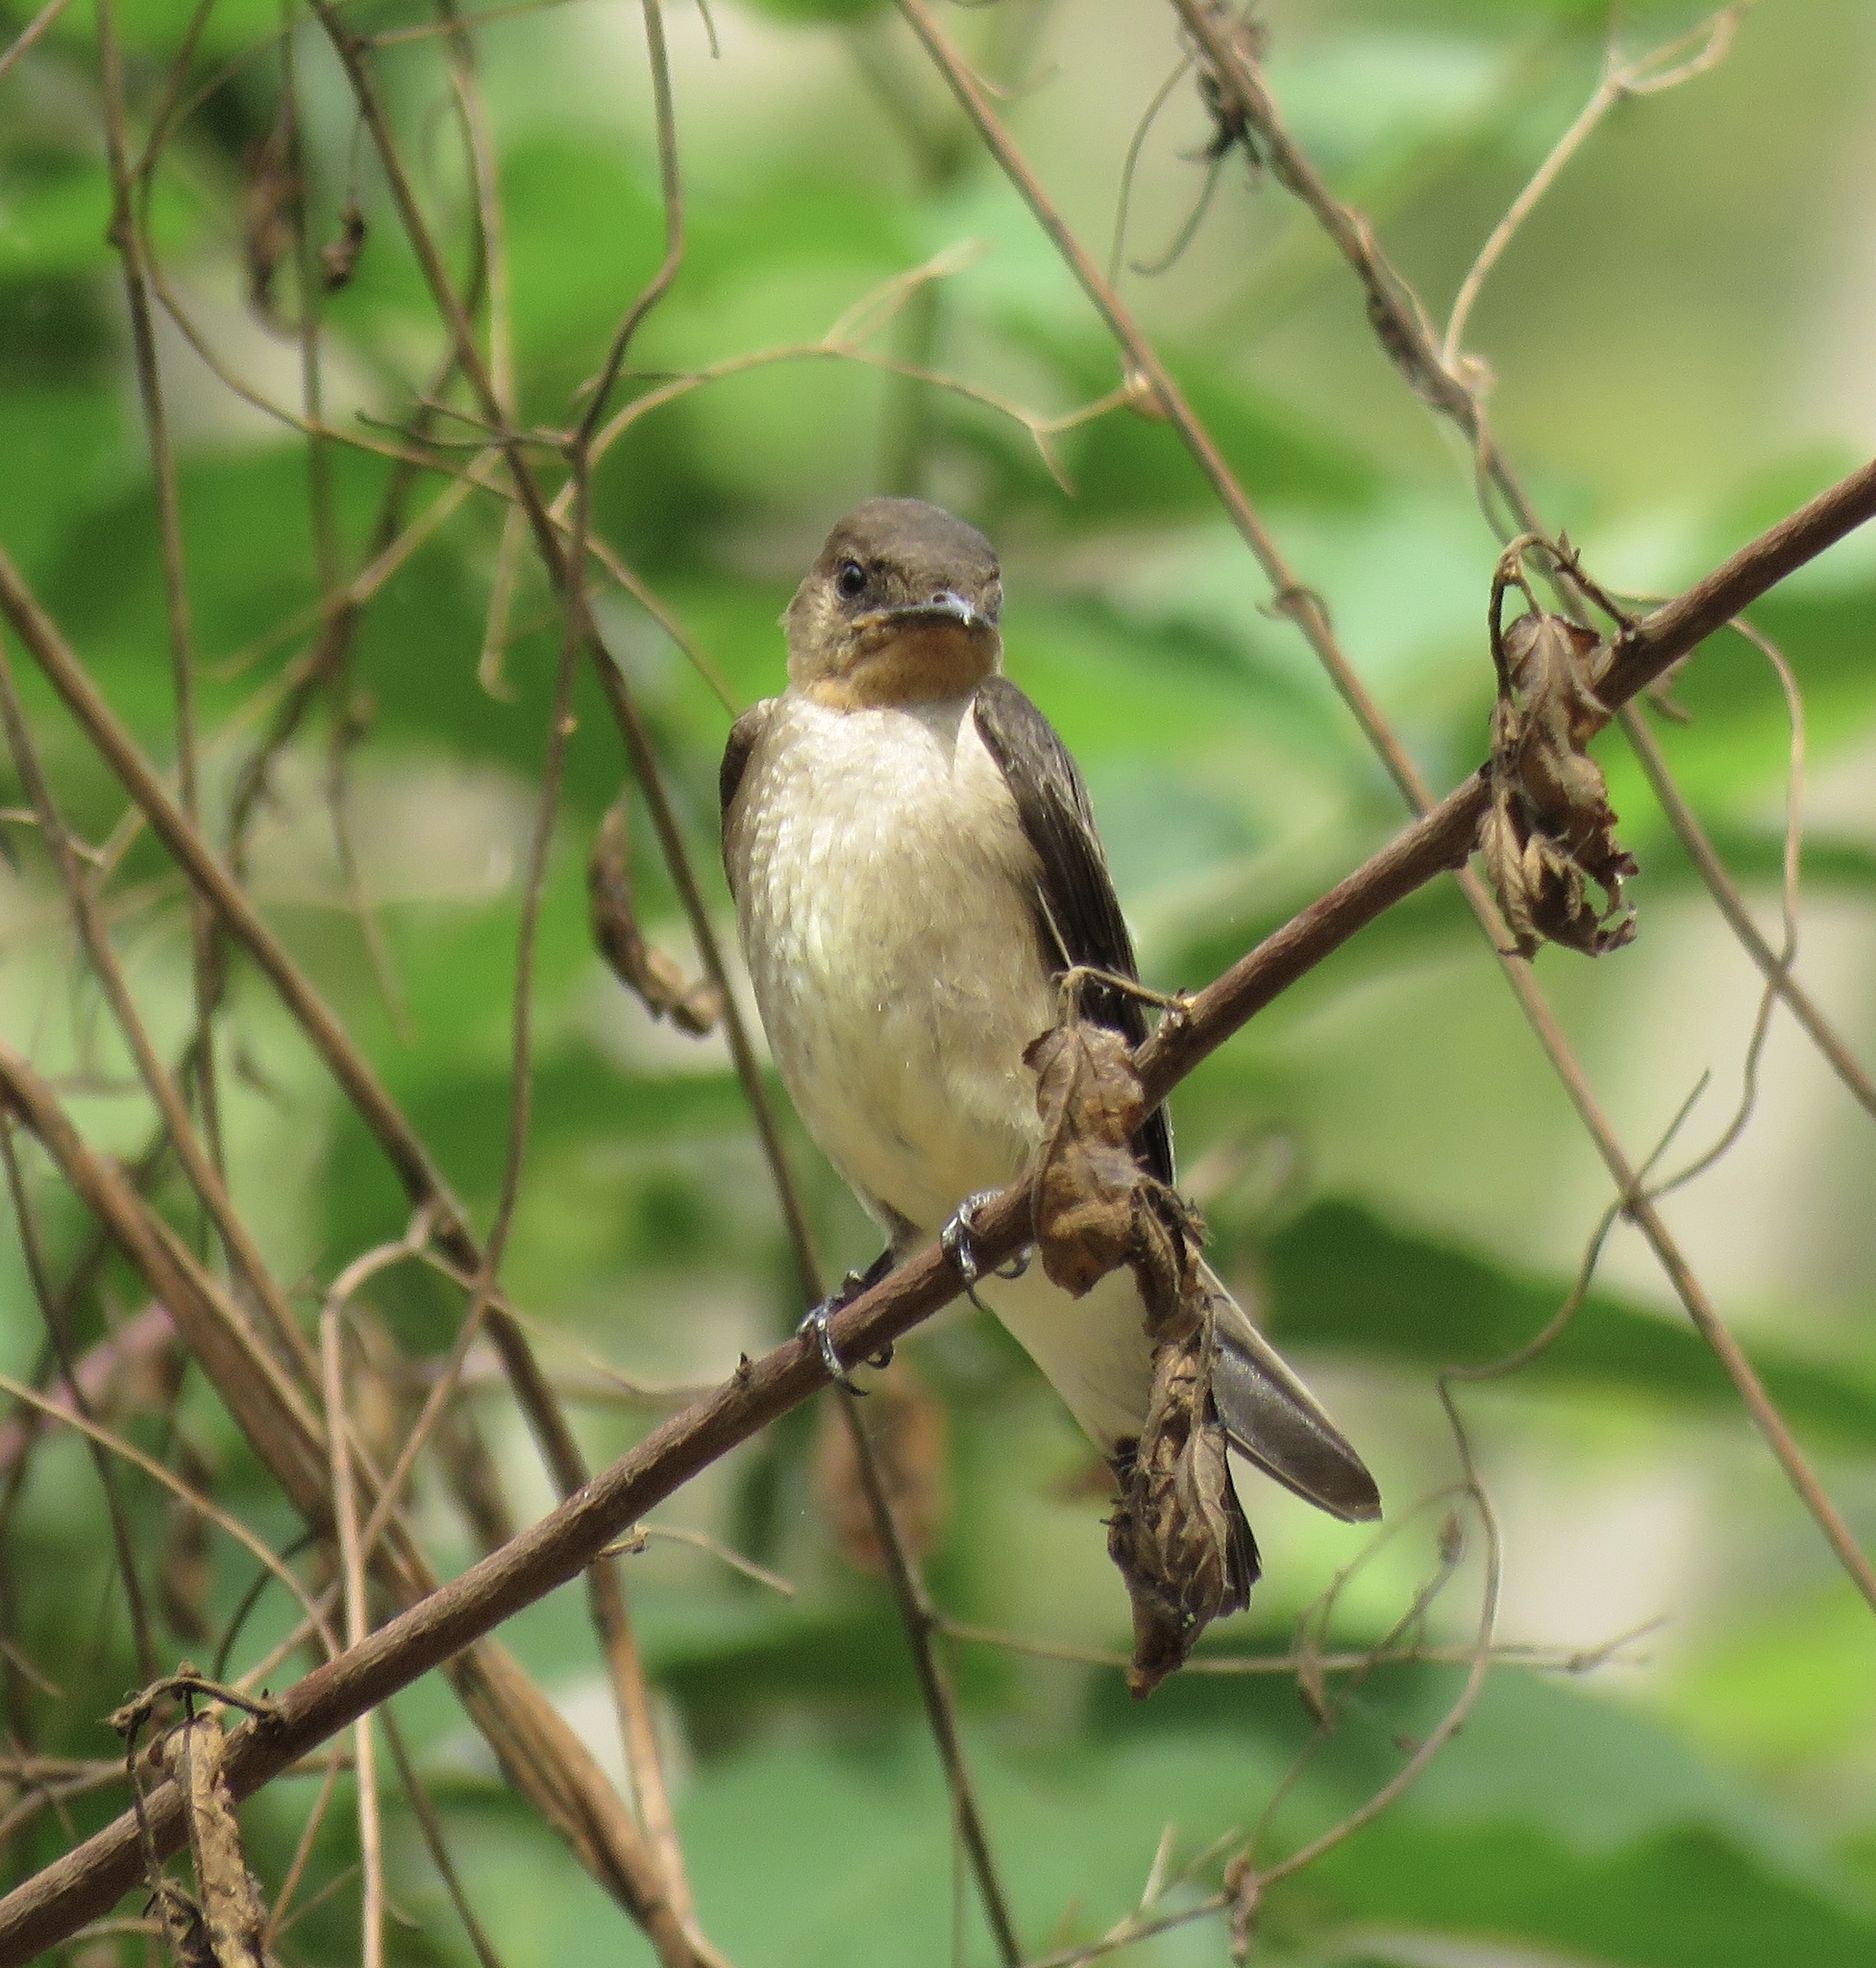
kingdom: Animalia
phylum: Chordata
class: Aves
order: Passeriformes
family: Hirundinidae
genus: Stelgidopteryx
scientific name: Stelgidopteryx ruficollis
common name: Southern rough-winged swallow
